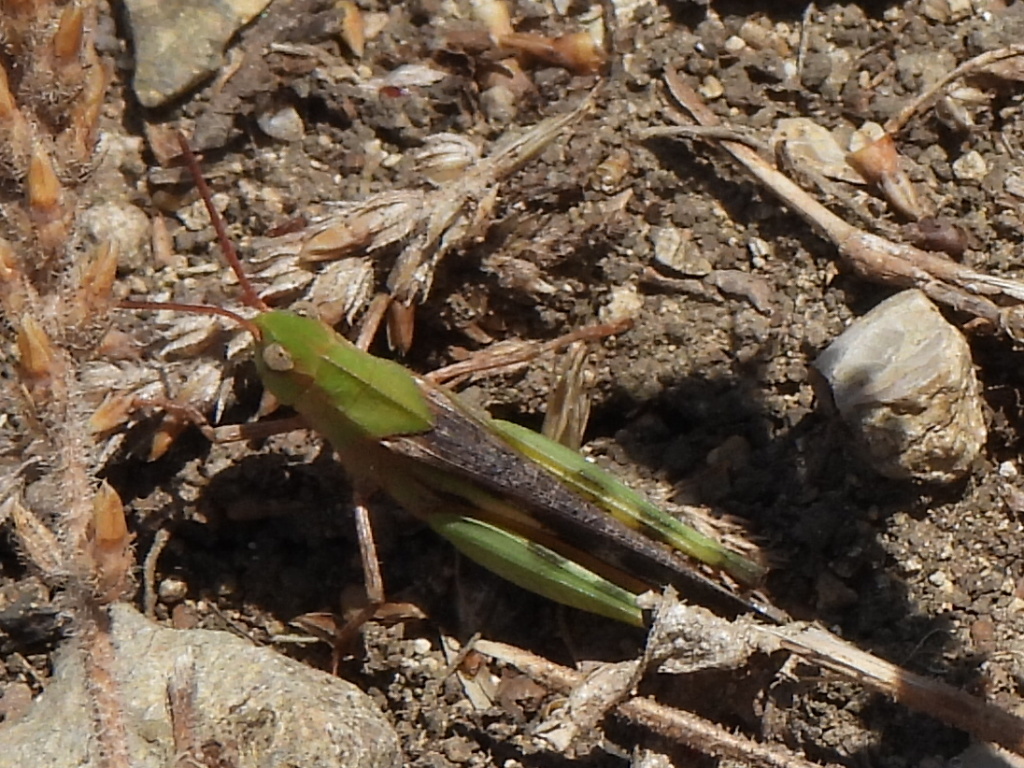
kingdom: Animalia
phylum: Arthropoda
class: Insecta
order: Orthoptera
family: Acrididae
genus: Chortophaga
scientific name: Chortophaga viridifasciata
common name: Green-striped grasshopper
